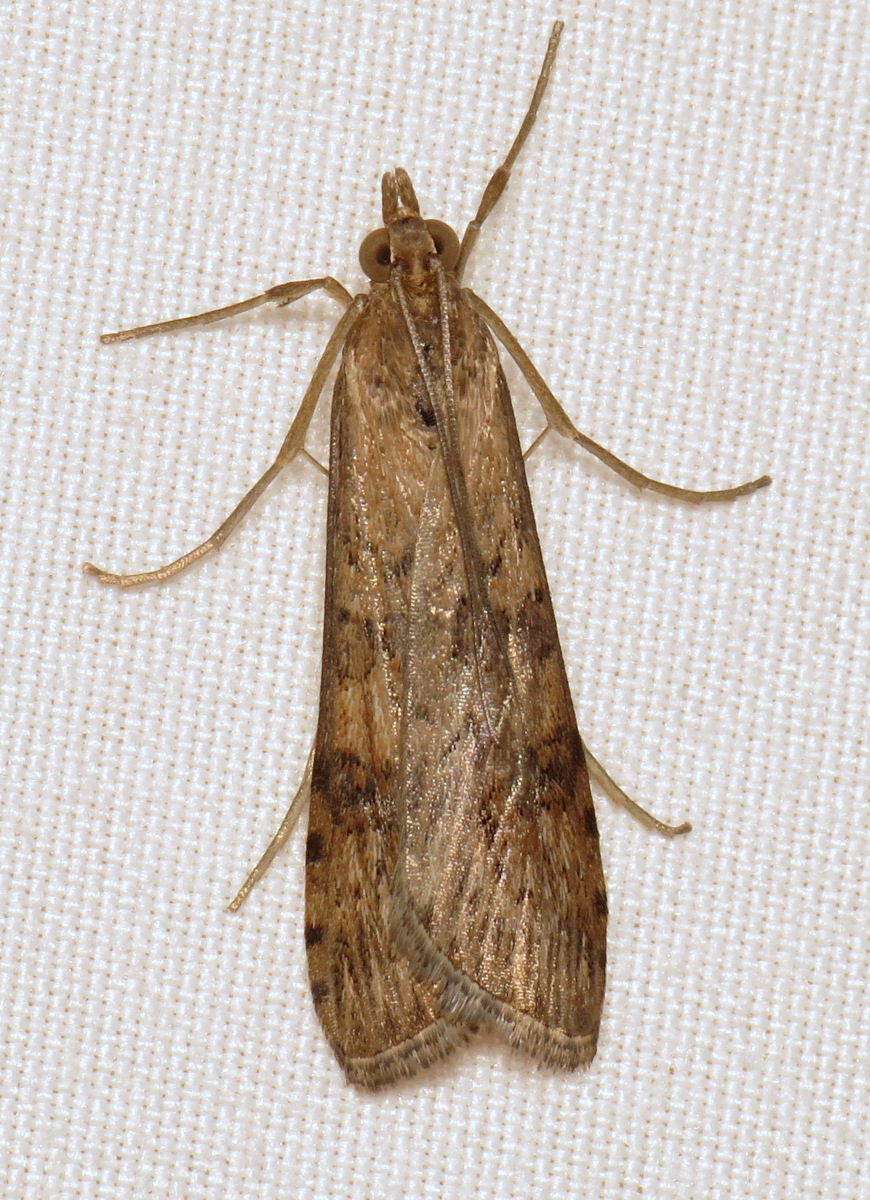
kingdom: Animalia
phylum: Arthropoda
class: Insecta
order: Lepidoptera
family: Crambidae
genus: Nomophila
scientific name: Nomophila nearctica
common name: American rush veneer
